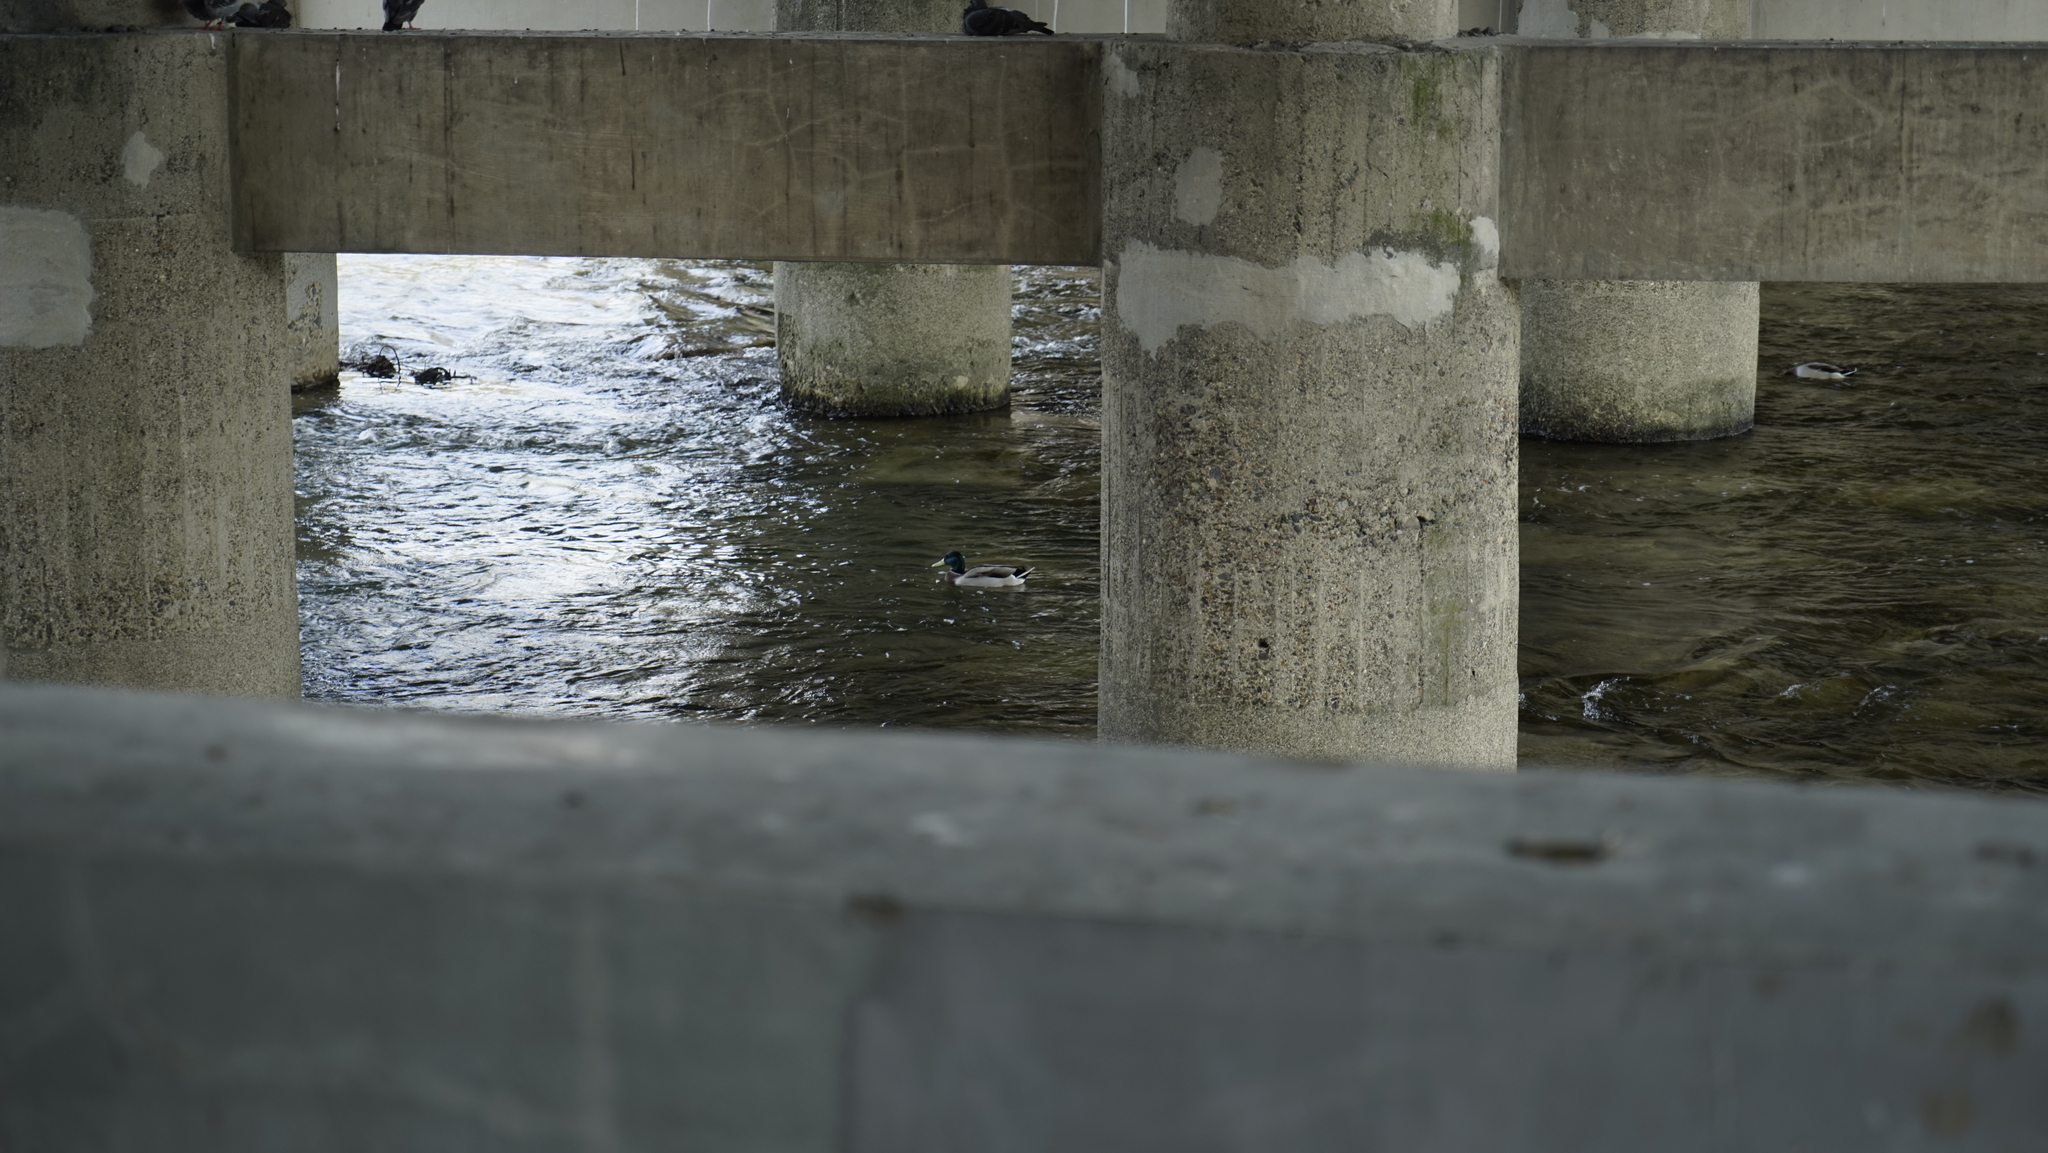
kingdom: Animalia
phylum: Chordata
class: Aves
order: Anseriformes
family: Anatidae
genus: Anas
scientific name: Anas platyrhynchos
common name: Mallard
